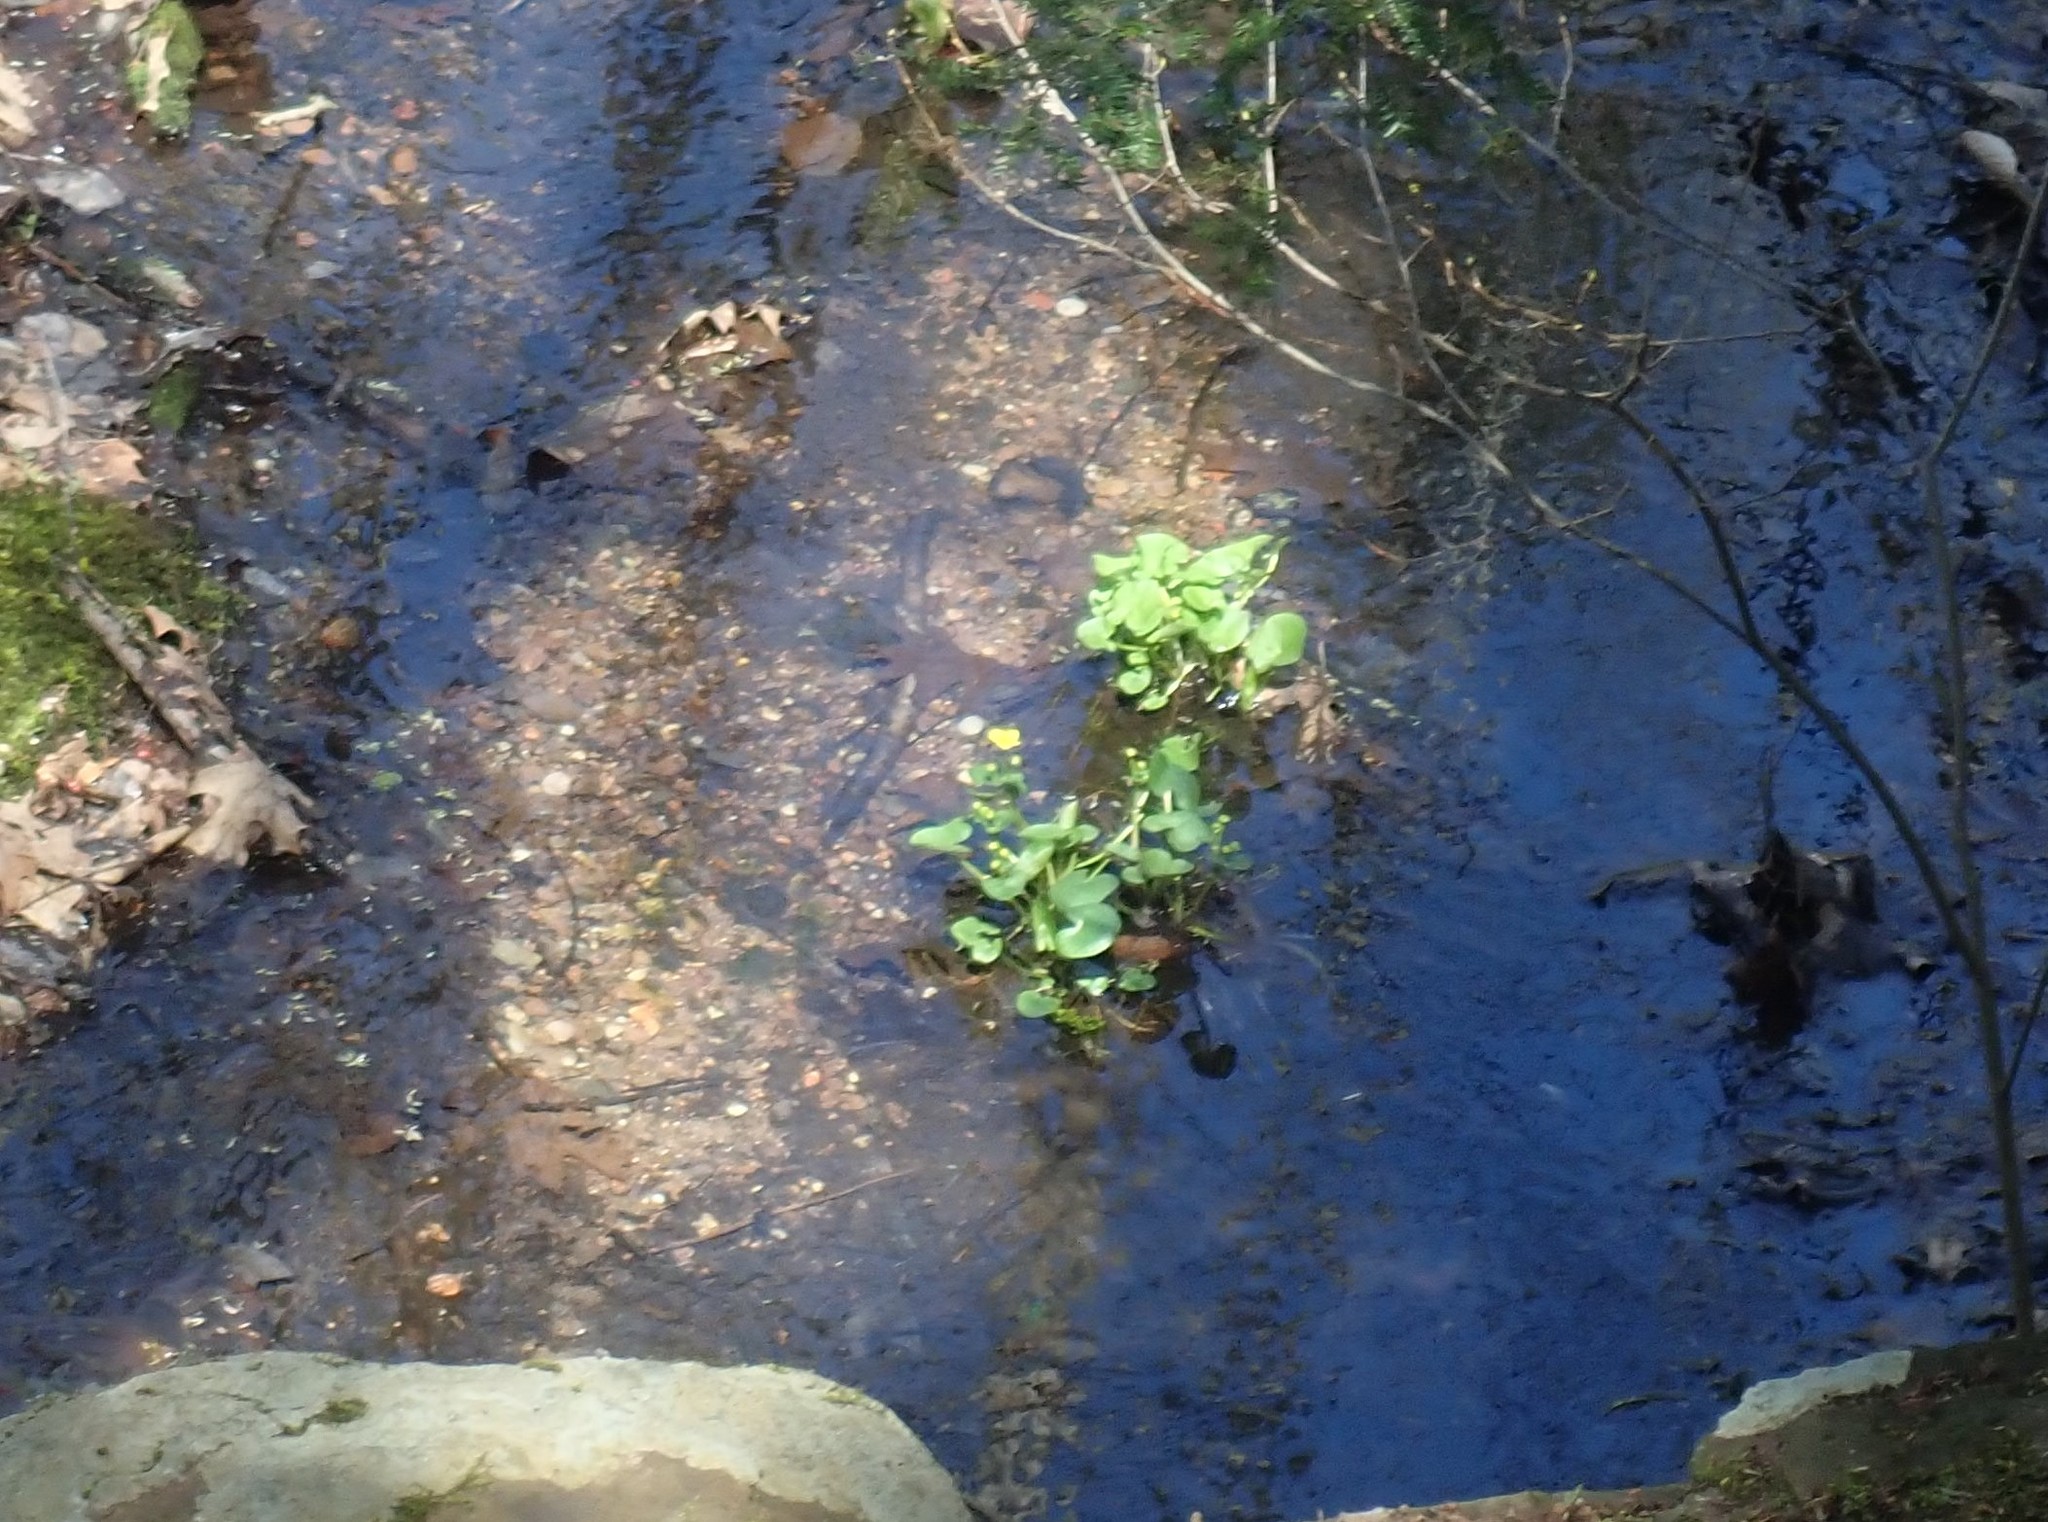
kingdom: Plantae
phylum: Tracheophyta
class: Magnoliopsida
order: Ranunculales
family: Ranunculaceae
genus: Caltha
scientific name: Caltha palustris
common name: Marsh marigold
